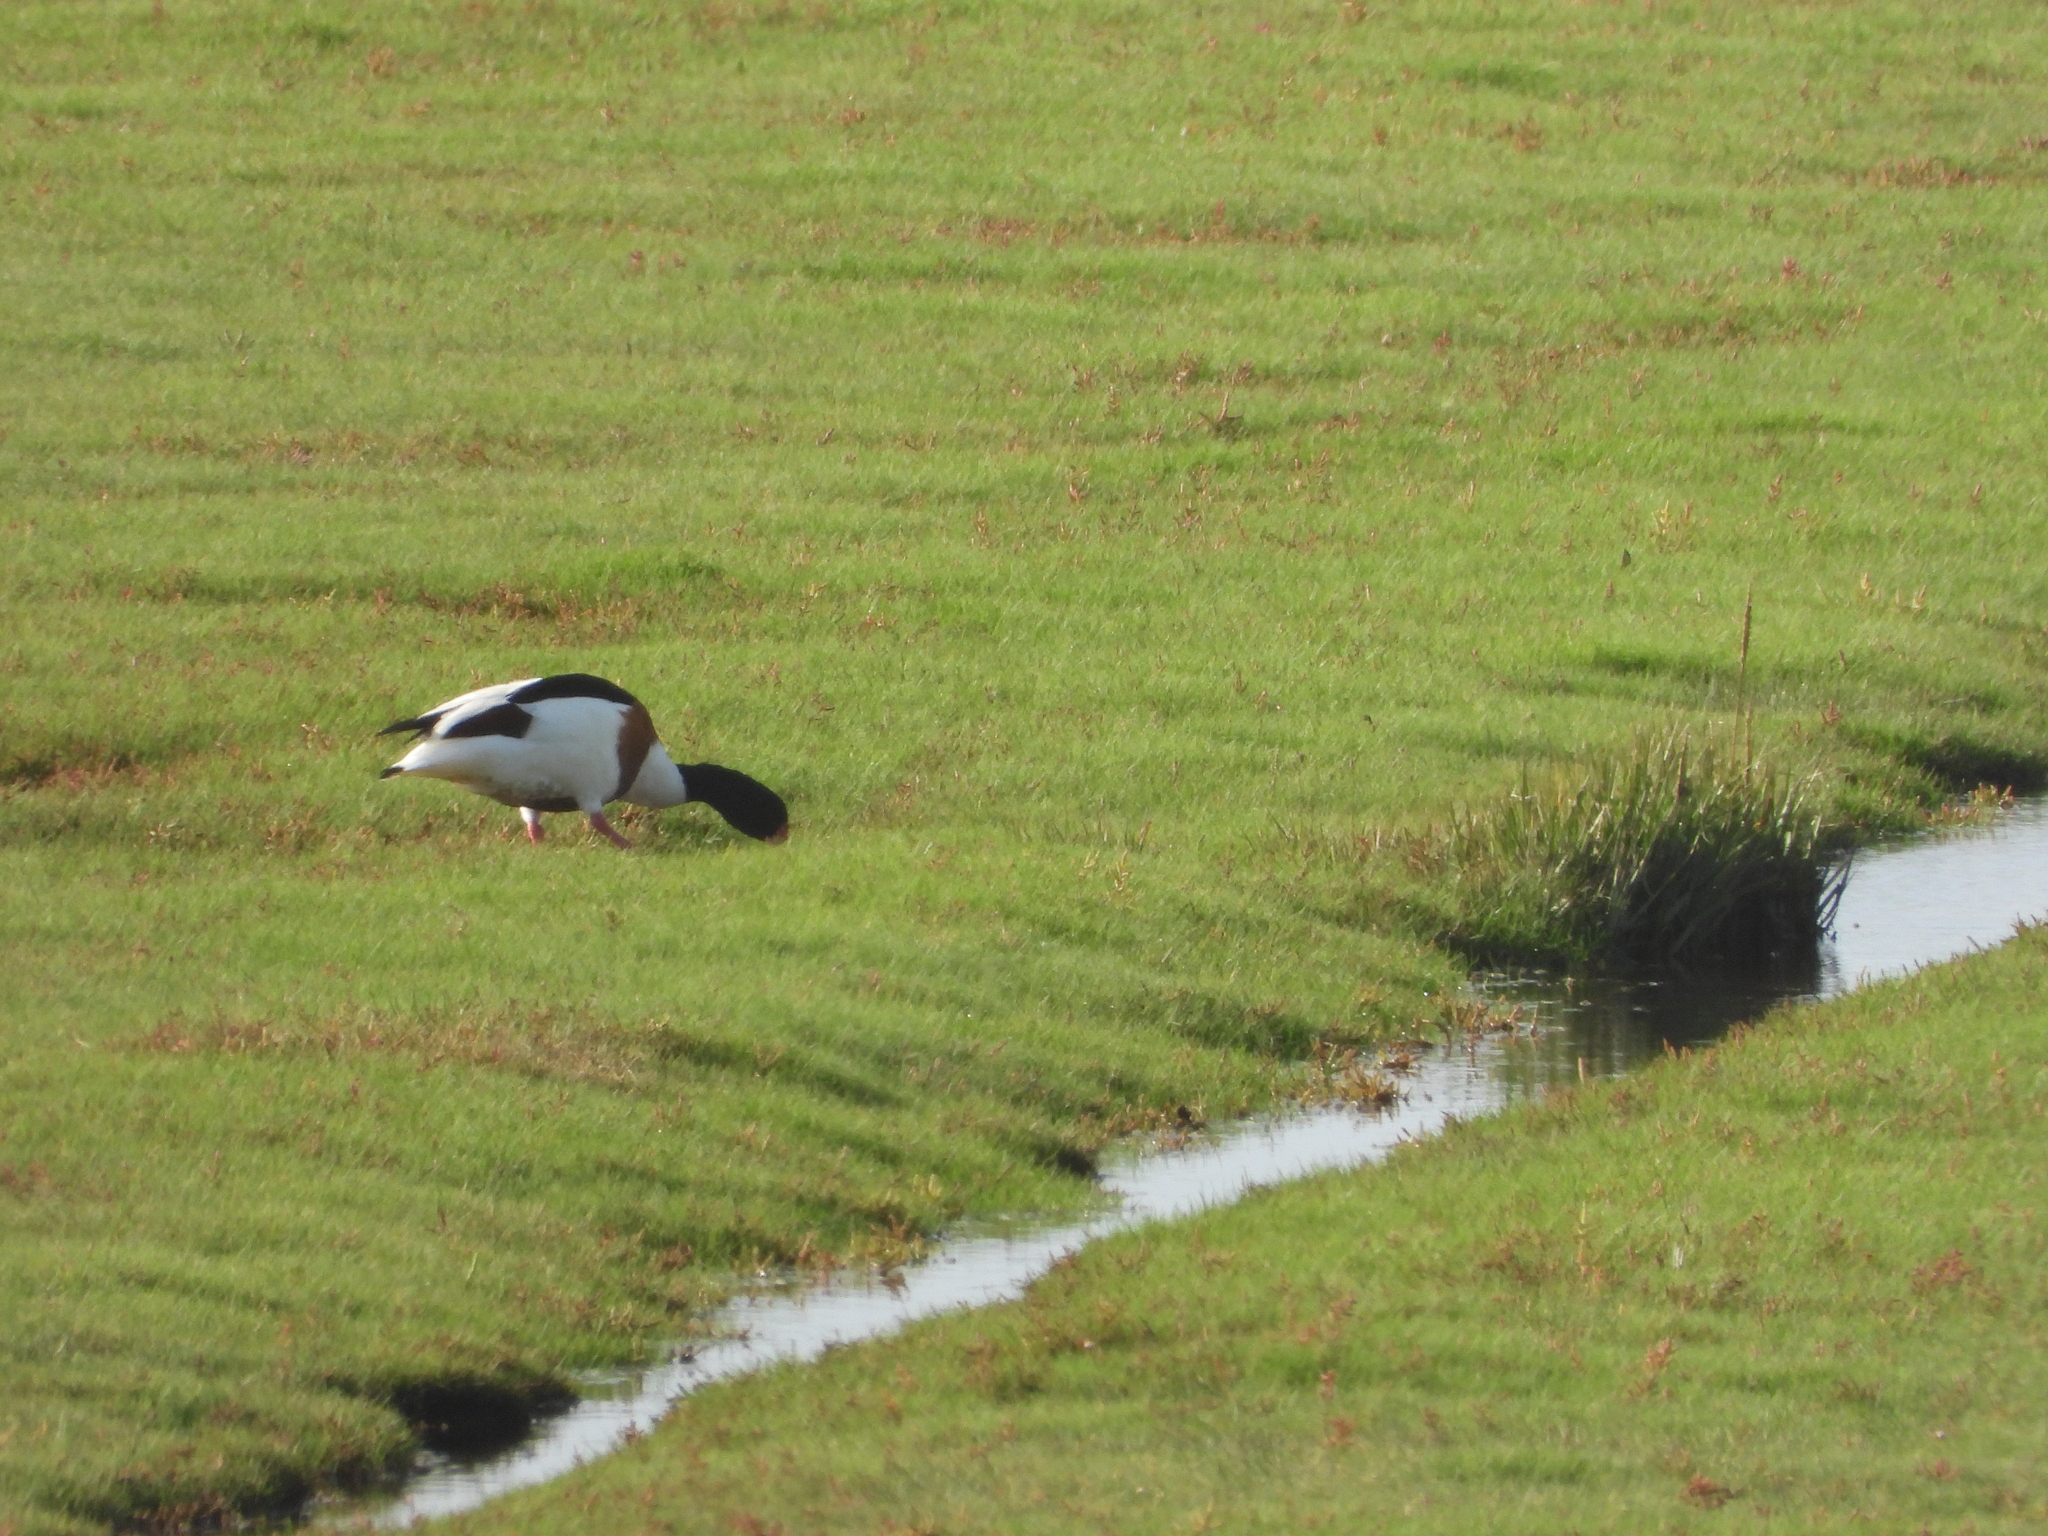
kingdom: Animalia
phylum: Chordata
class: Aves
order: Anseriformes
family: Anatidae
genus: Tadorna
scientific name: Tadorna tadorna
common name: Common shelduck
